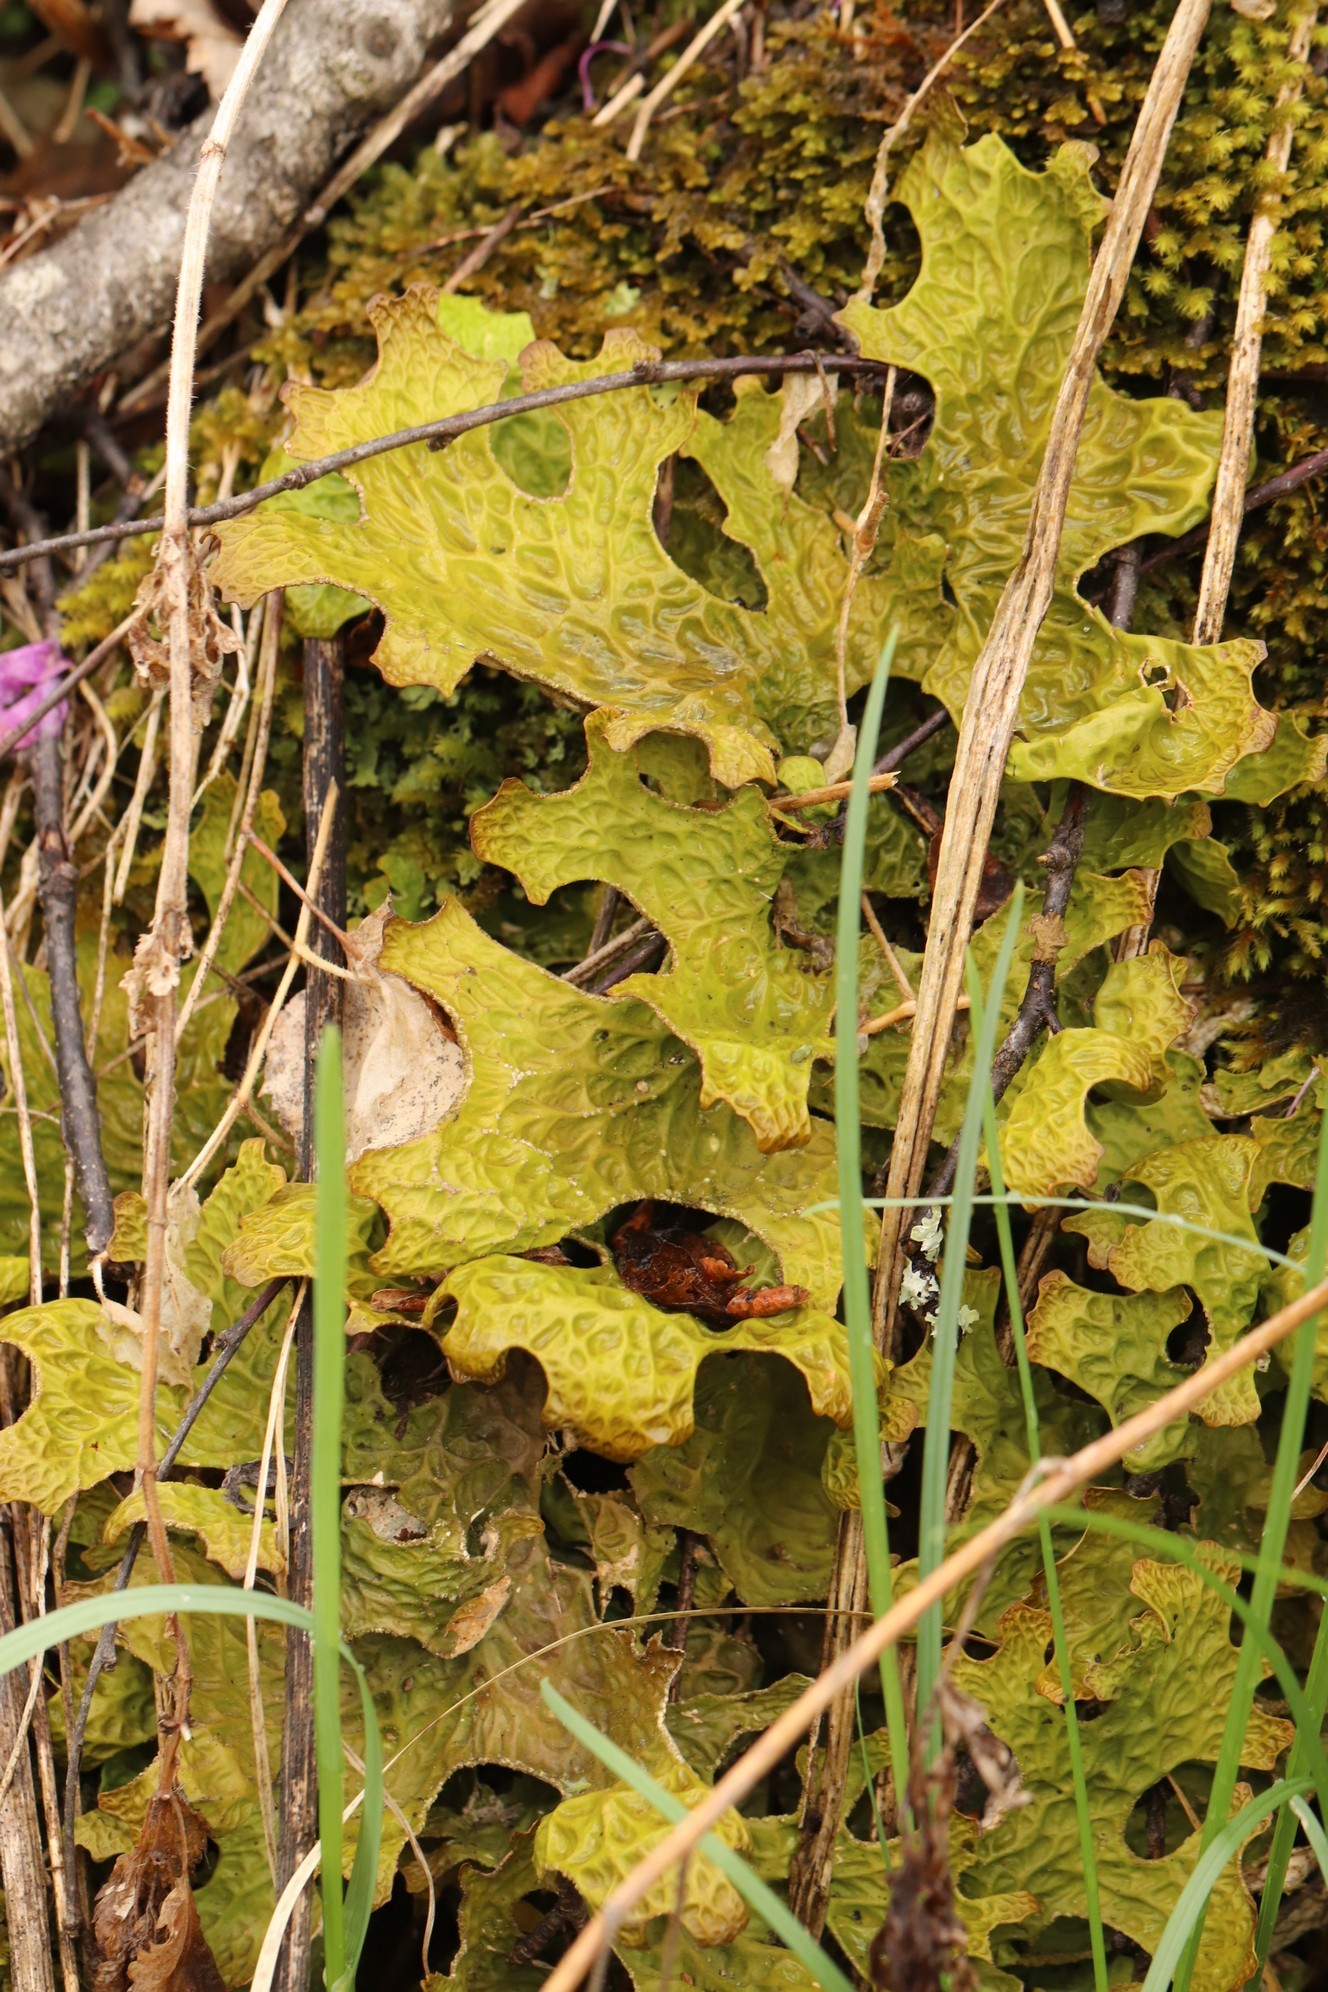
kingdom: Fungi
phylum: Ascomycota
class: Lecanoromycetes
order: Peltigerales
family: Lobariaceae
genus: Lobaria
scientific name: Lobaria pulmonaria
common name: Lungwort
